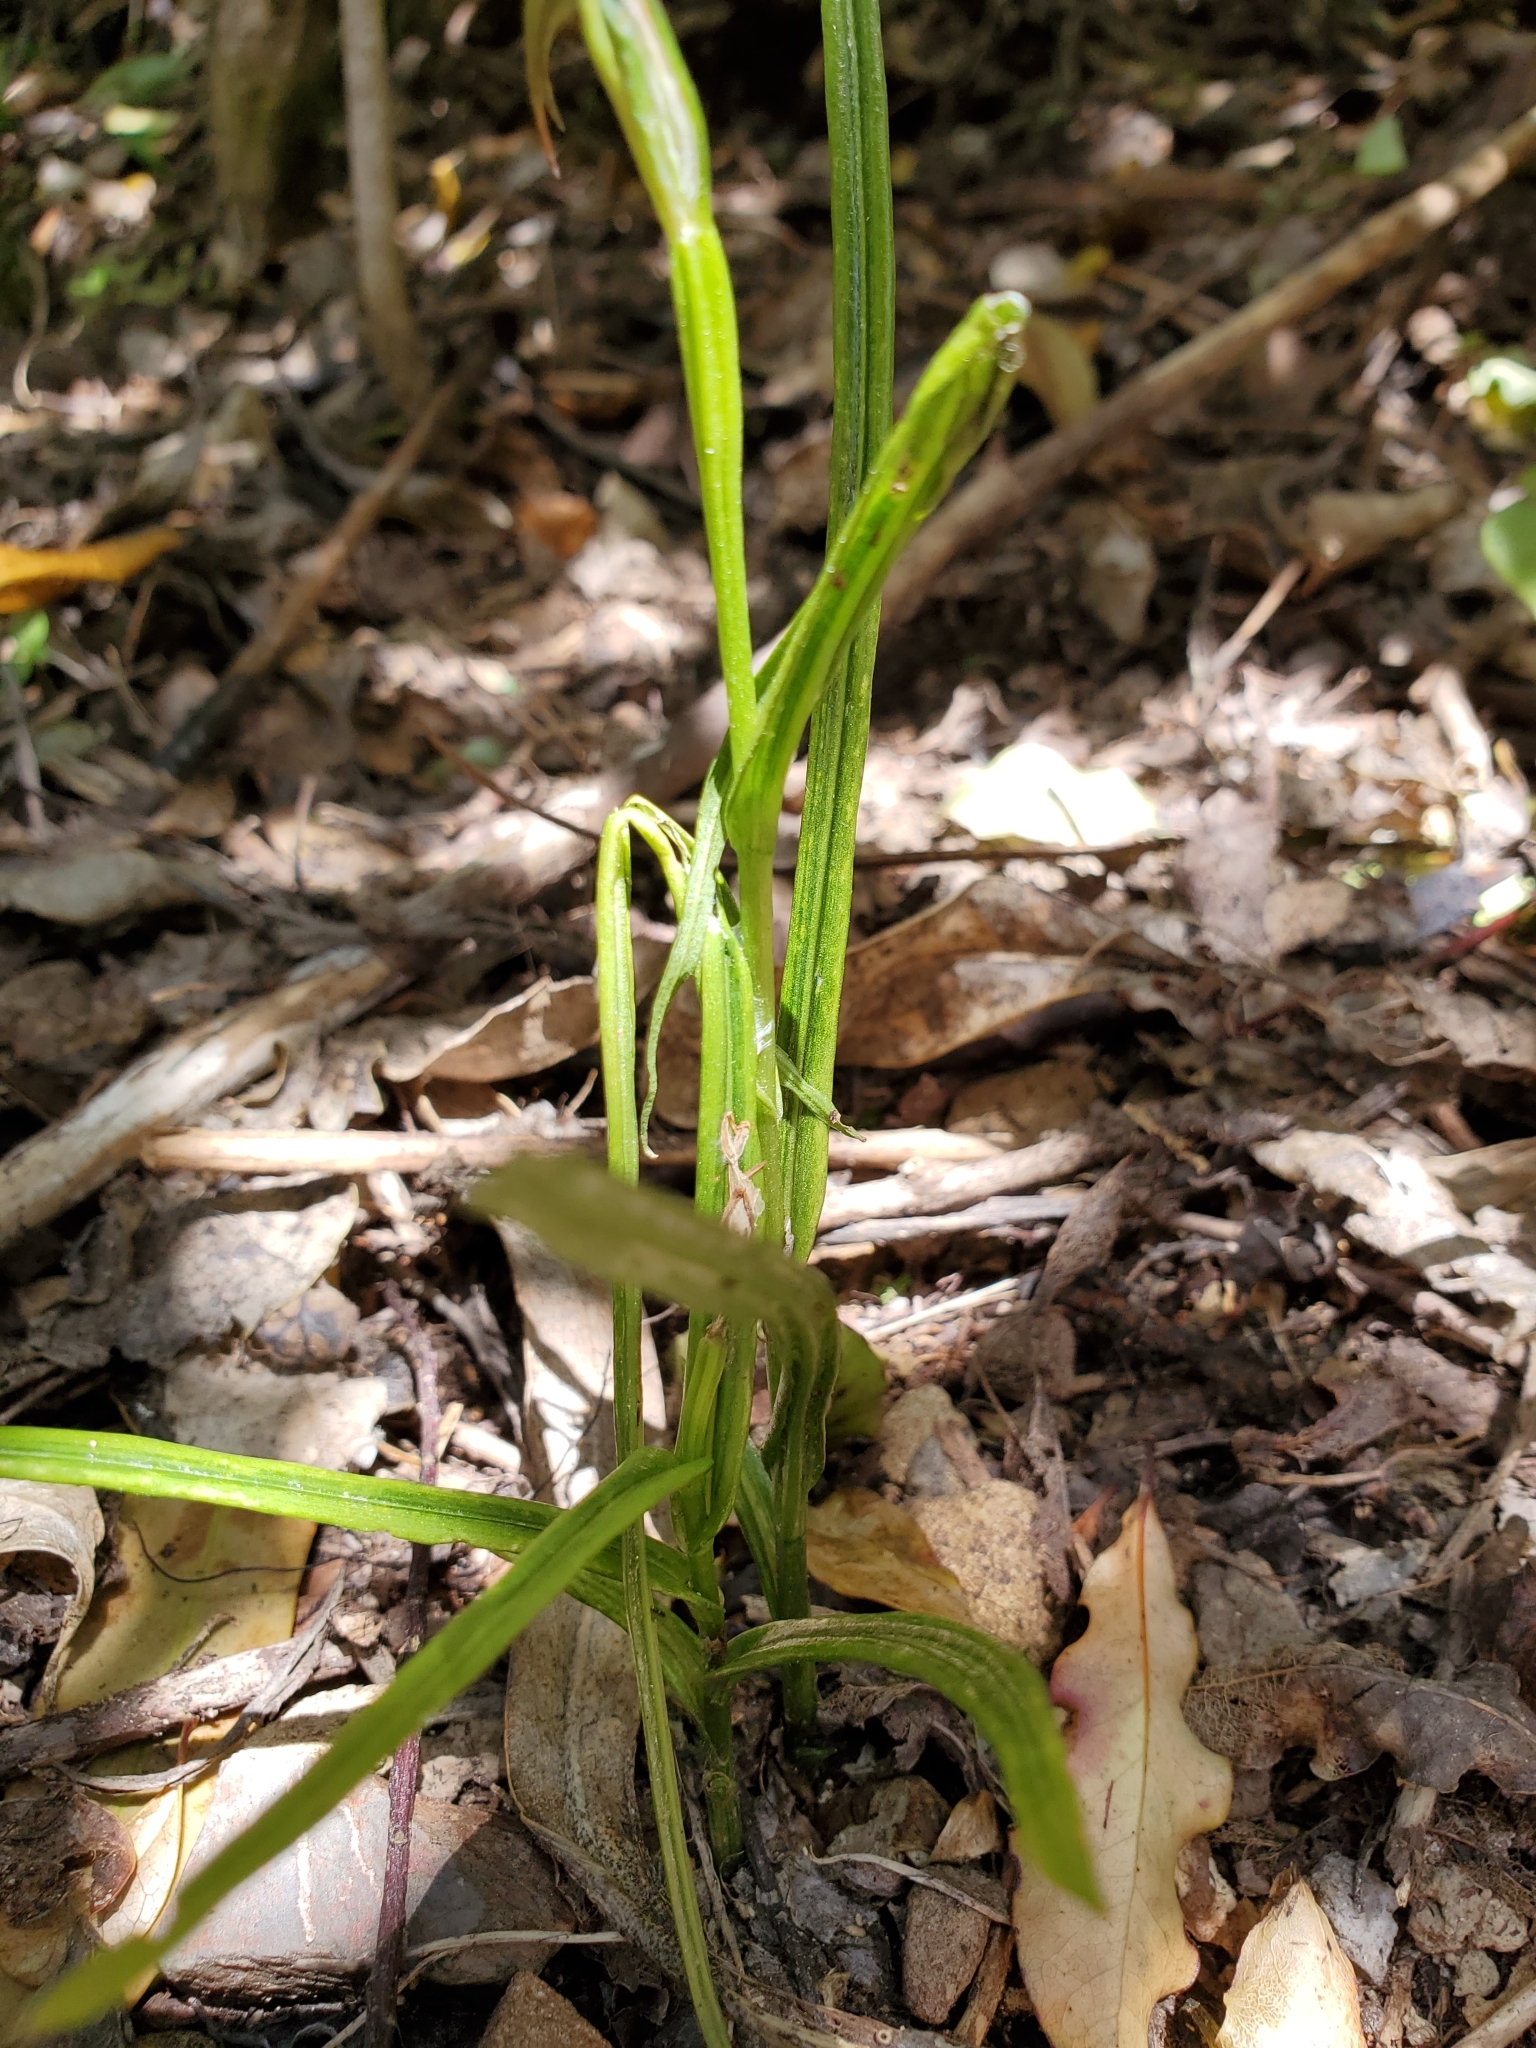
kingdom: Plantae
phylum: Tracheophyta
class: Liliopsida
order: Asparagales
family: Orchidaceae
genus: Pterostylis
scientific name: Pterostylis graminea
